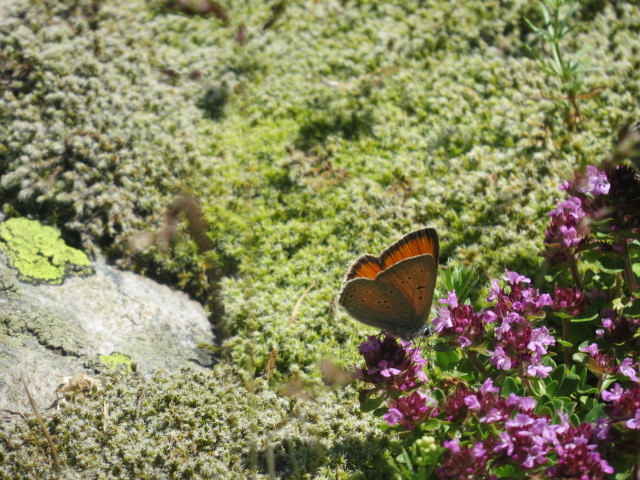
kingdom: Animalia
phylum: Arthropoda
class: Insecta
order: Lepidoptera
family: Lycaenidae
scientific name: Lycaenidae
